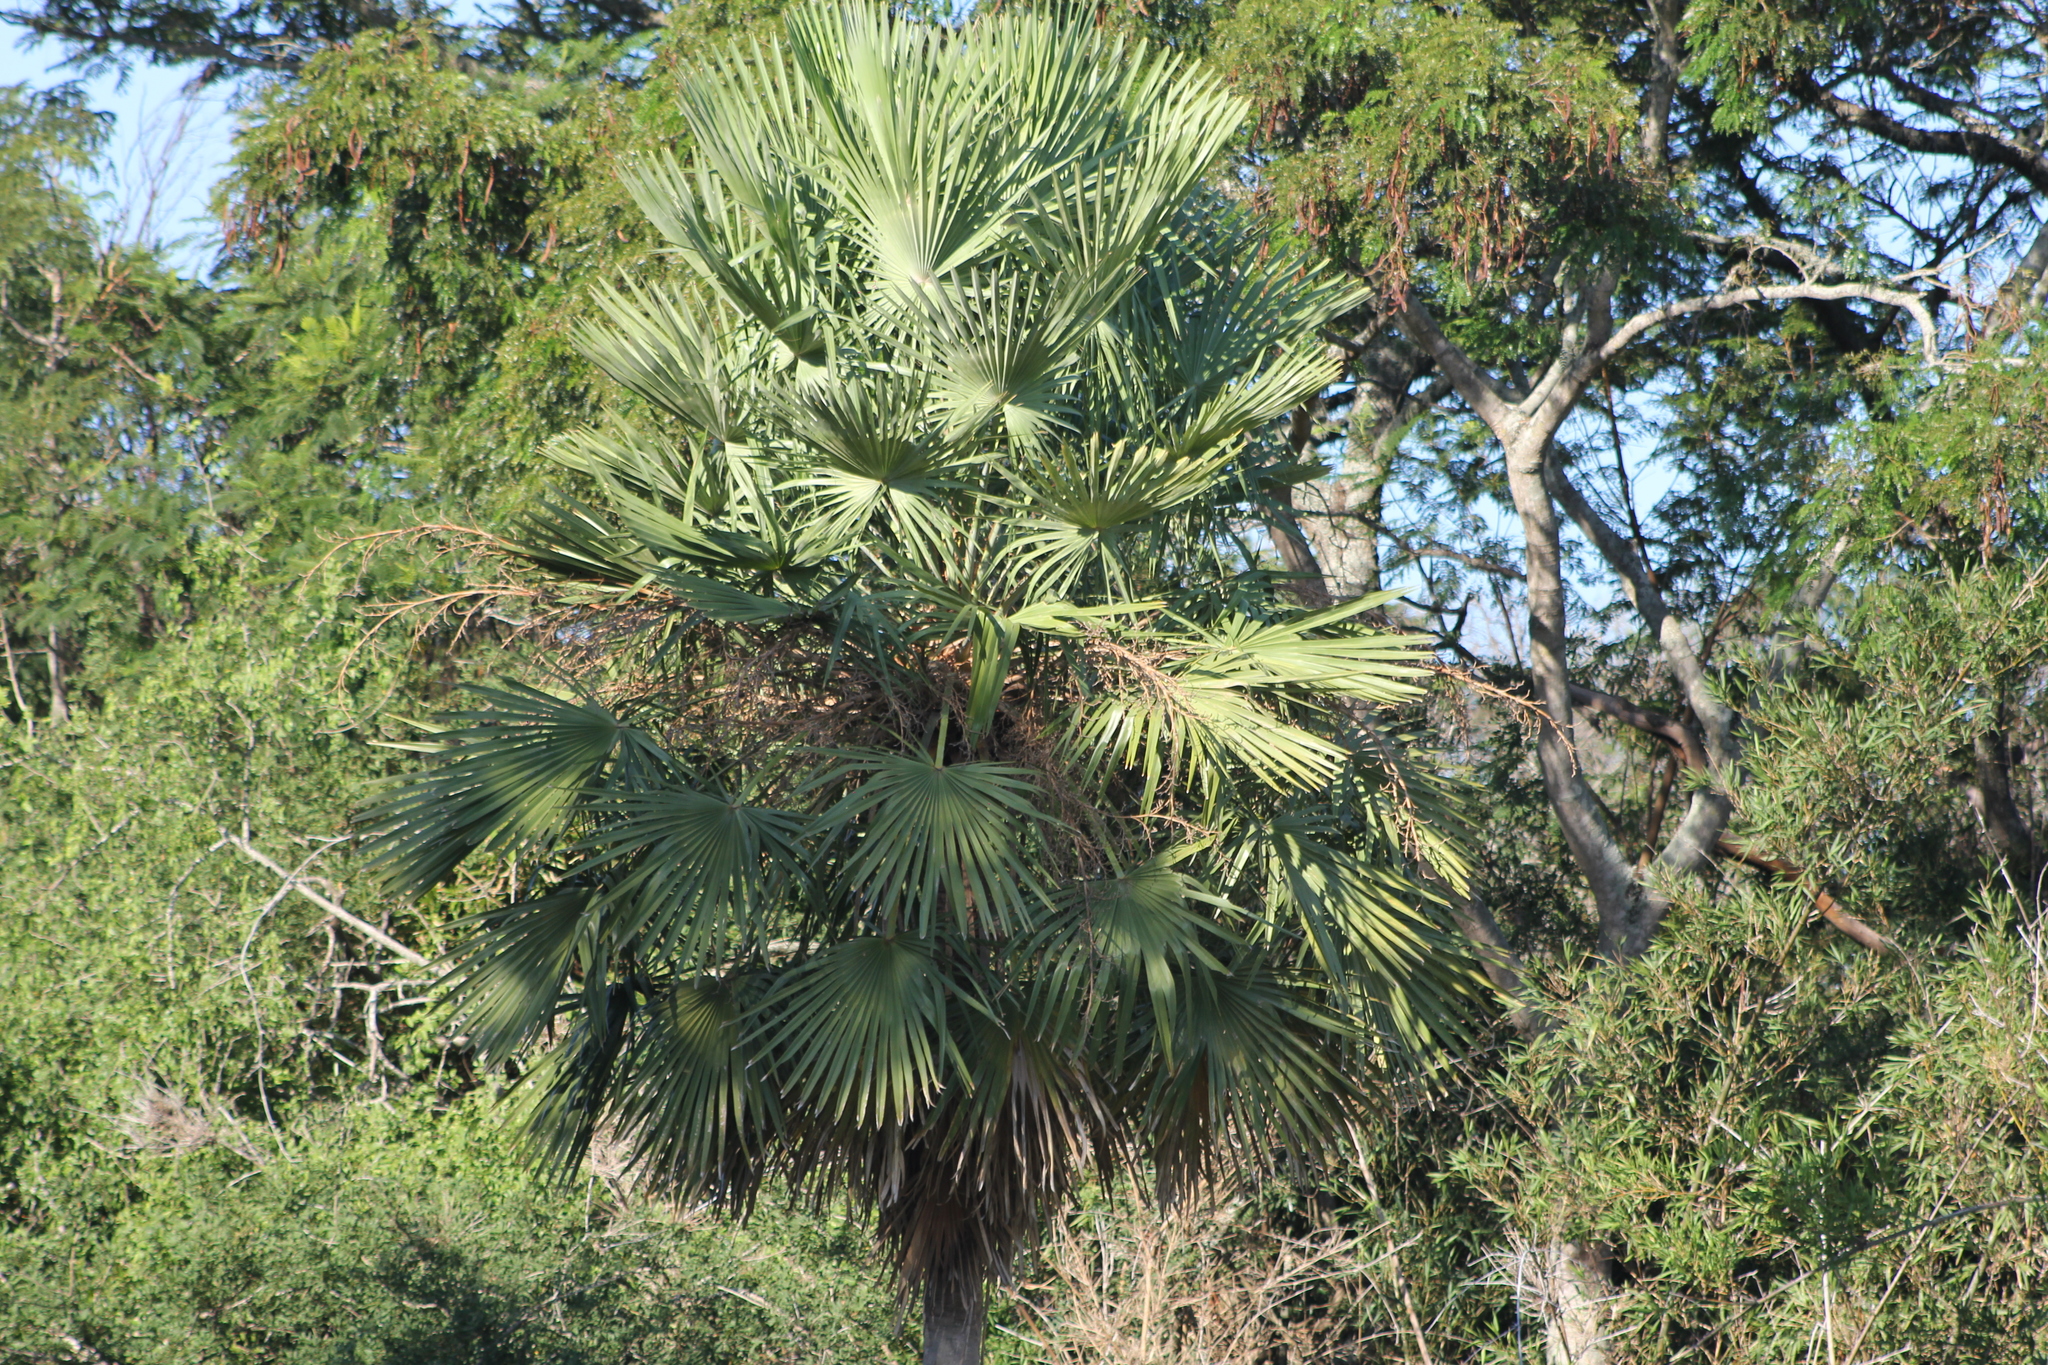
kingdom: Plantae
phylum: Tracheophyta
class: Liliopsida
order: Arecales
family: Arecaceae
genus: Copernicia
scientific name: Copernicia alba
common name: Caranday palm
